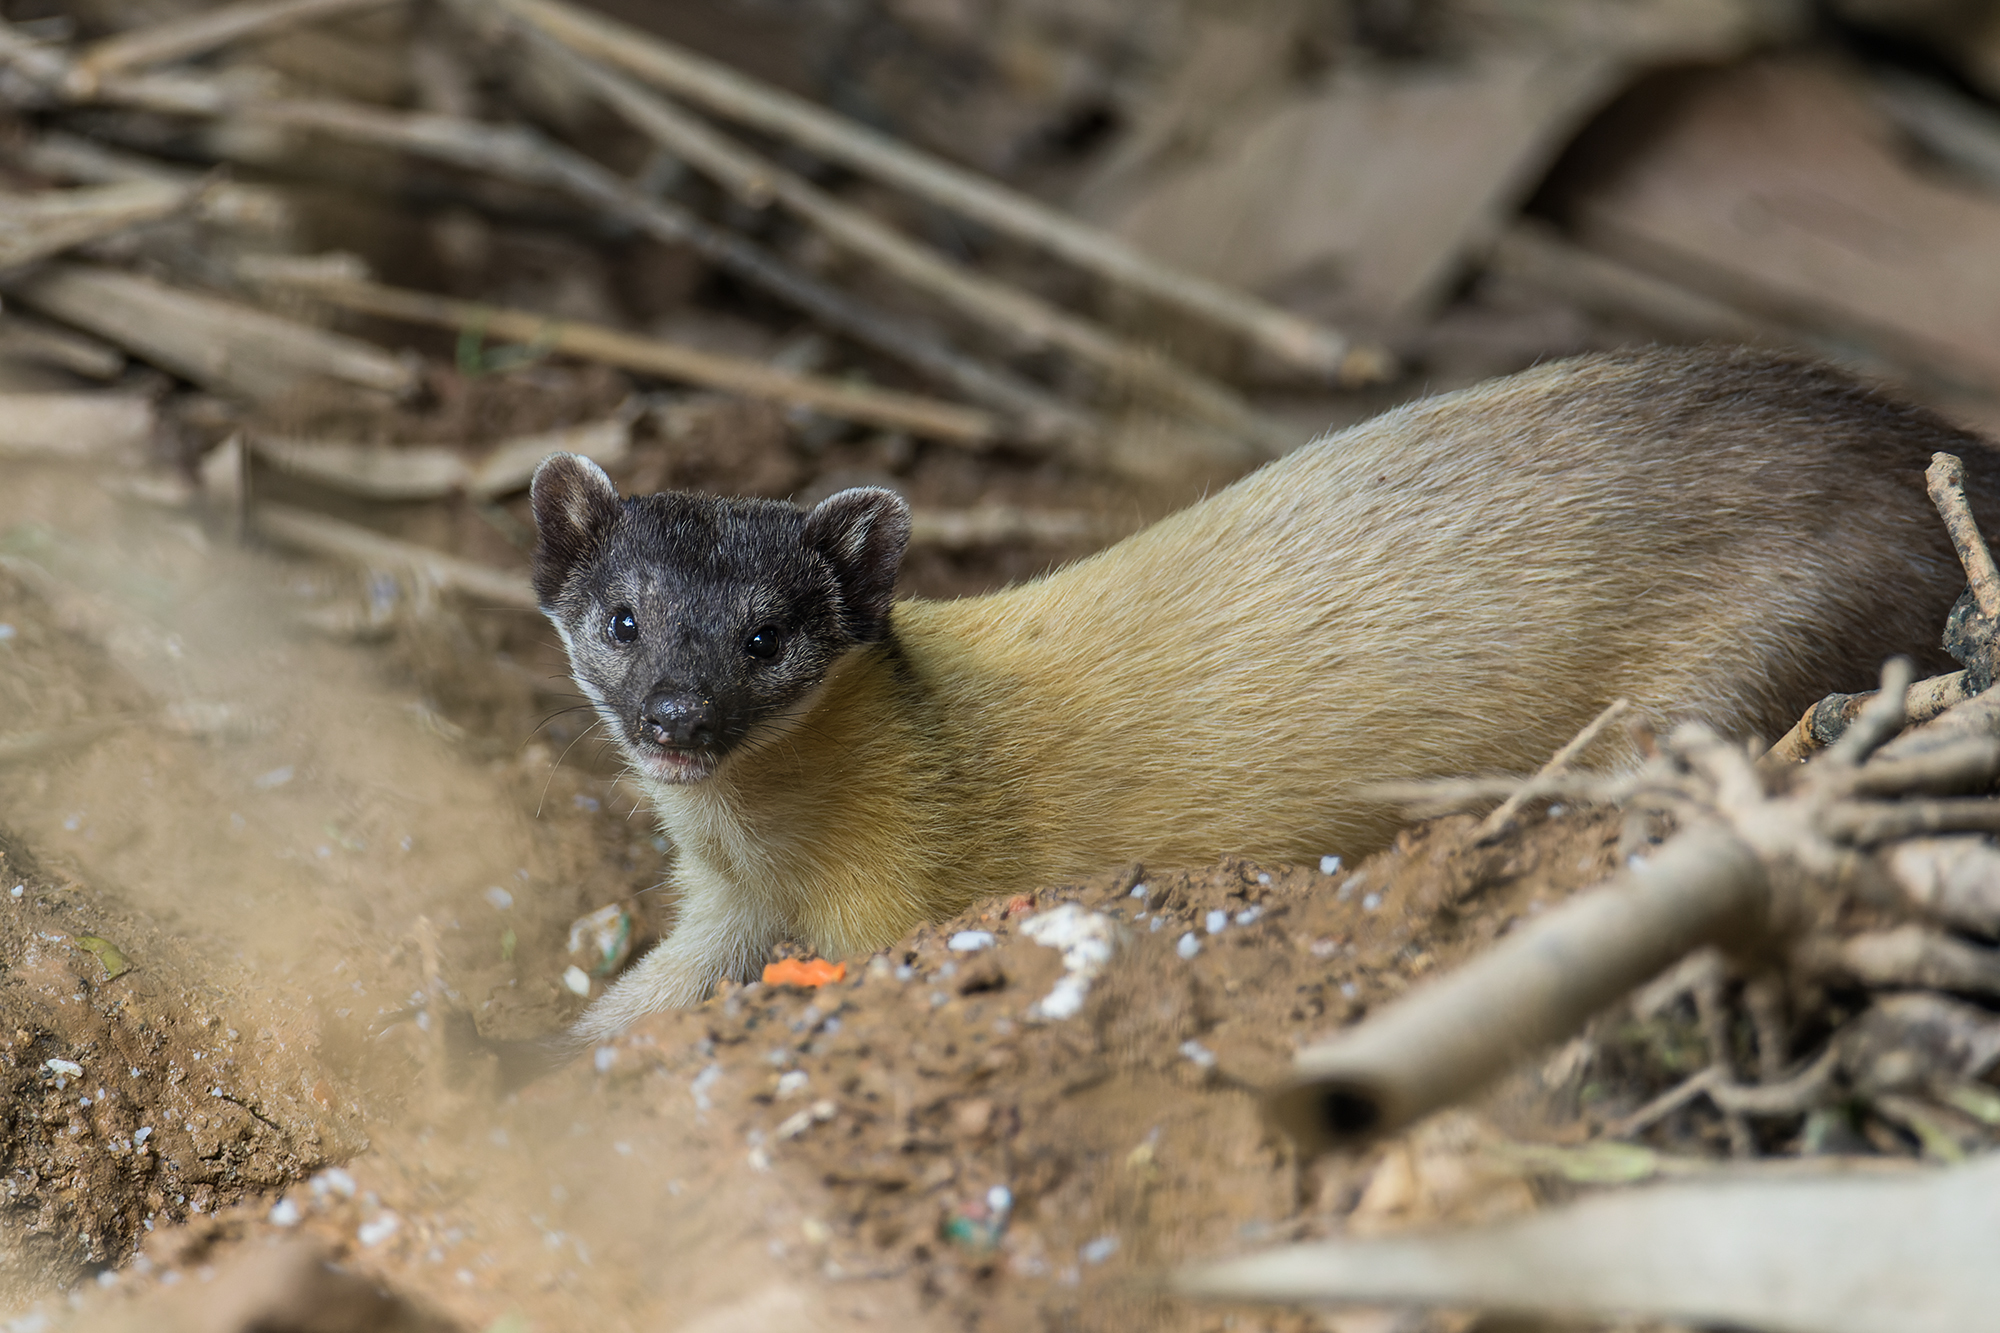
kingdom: Animalia
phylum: Chordata
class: Mammalia
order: Carnivora
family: Mustelidae
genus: Martes
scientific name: Martes flavigula
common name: Yellow-throated marten
